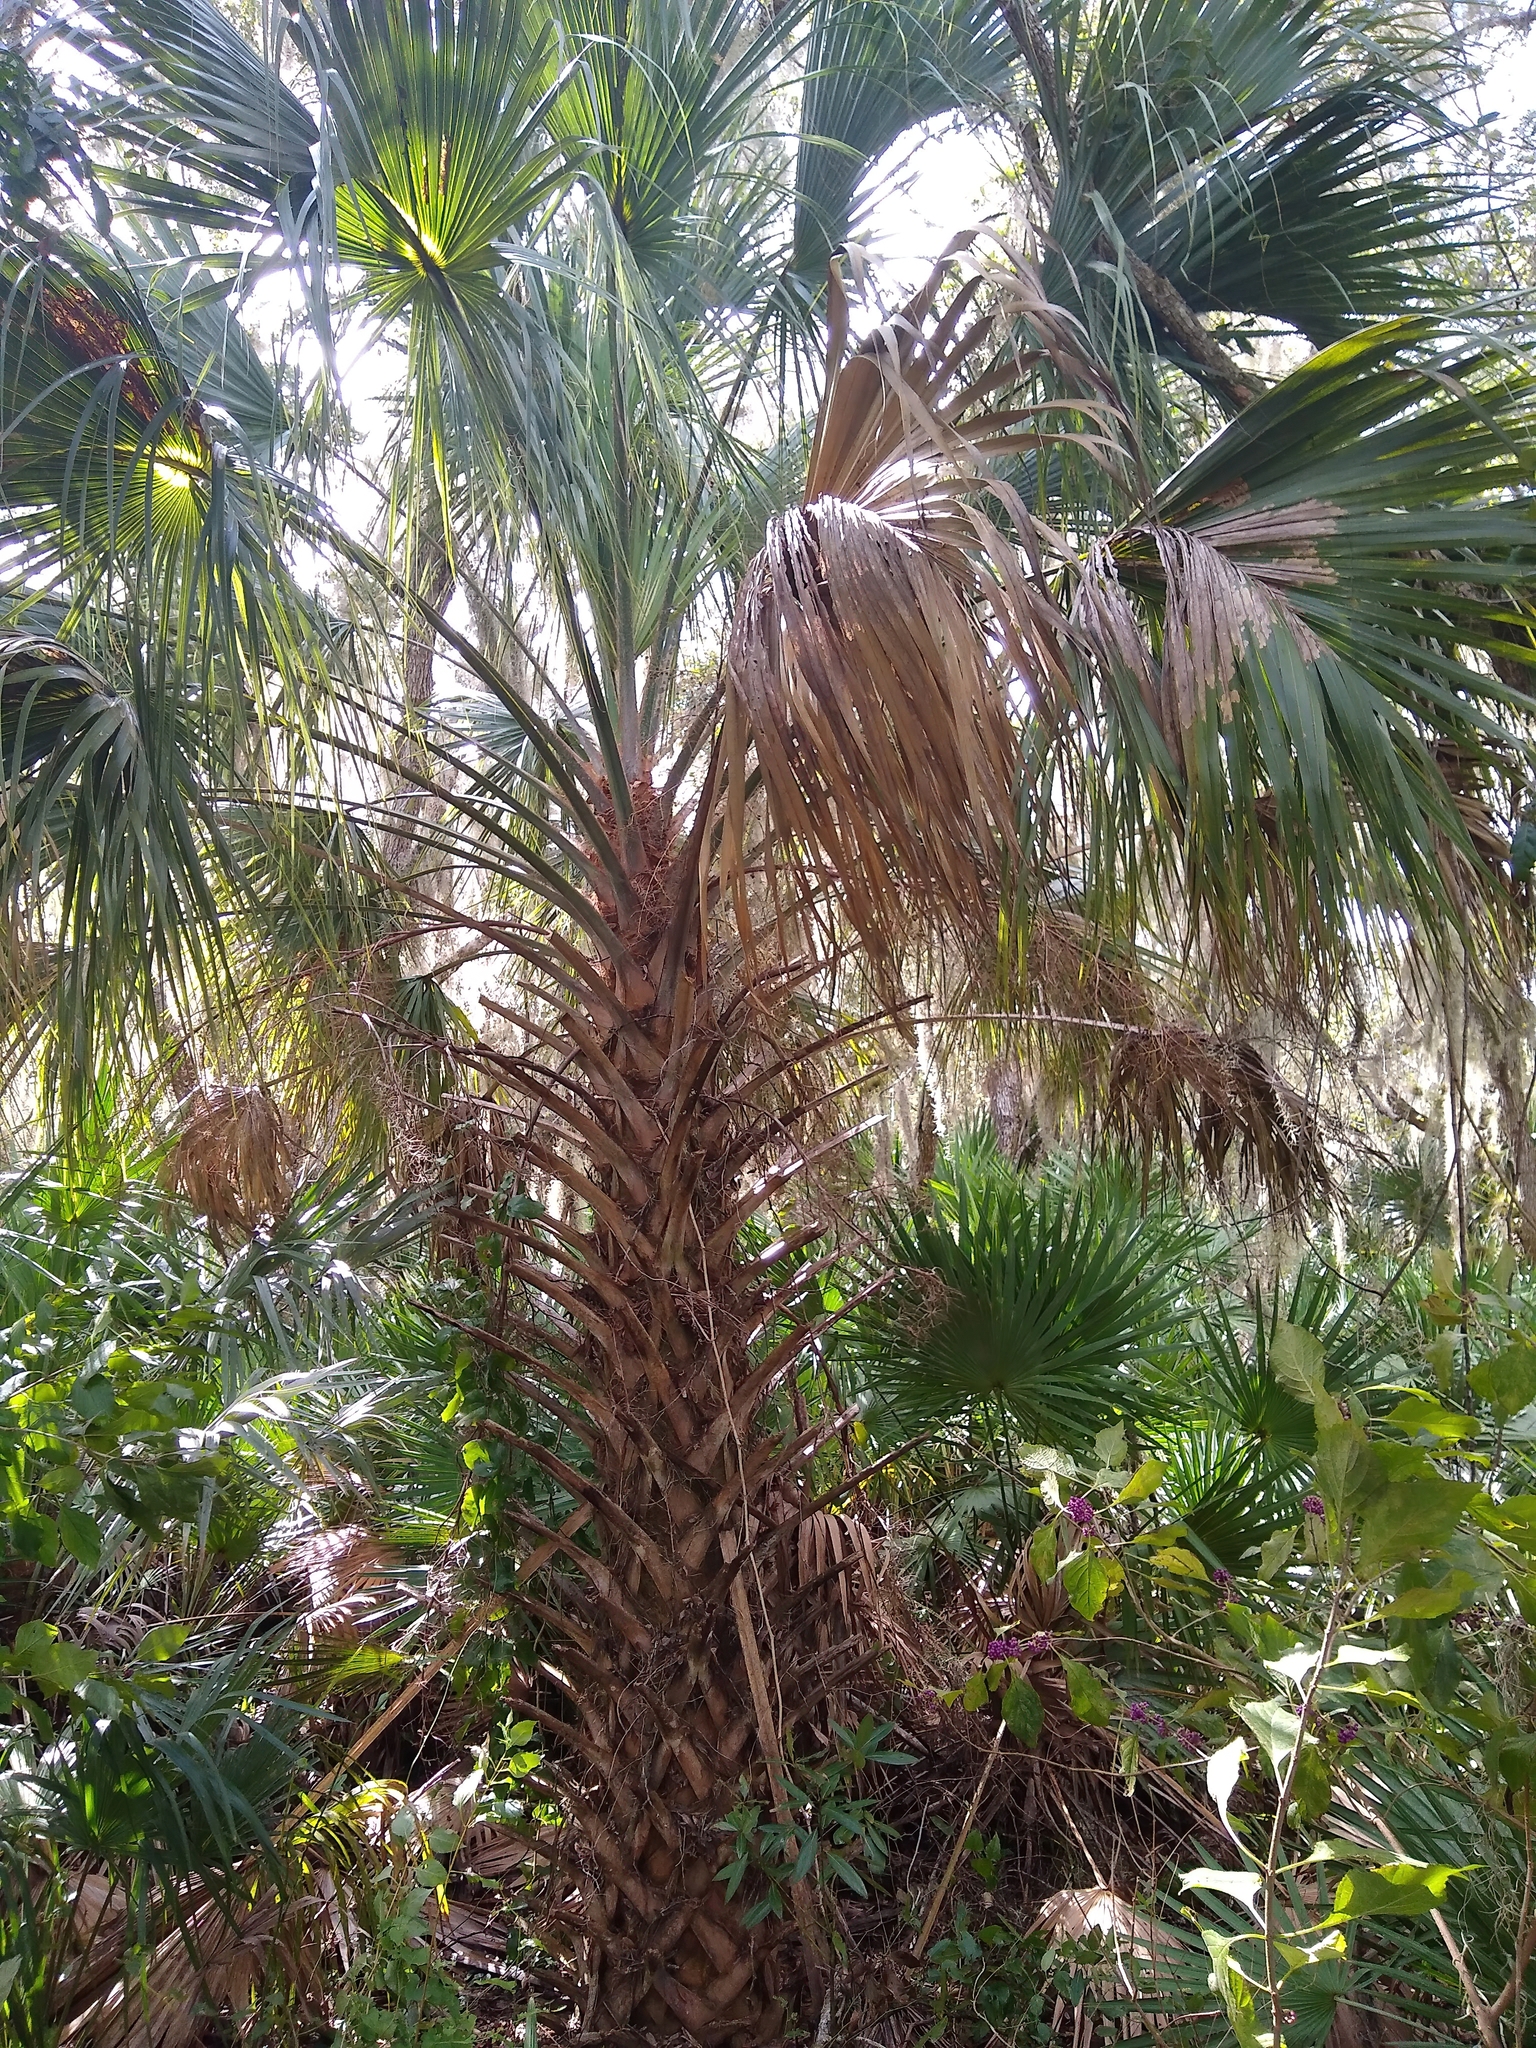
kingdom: Plantae
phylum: Tracheophyta
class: Liliopsida
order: Arecales
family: Arecaceae
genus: Sabal
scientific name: Sabal palmetto
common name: Blue palmetto
